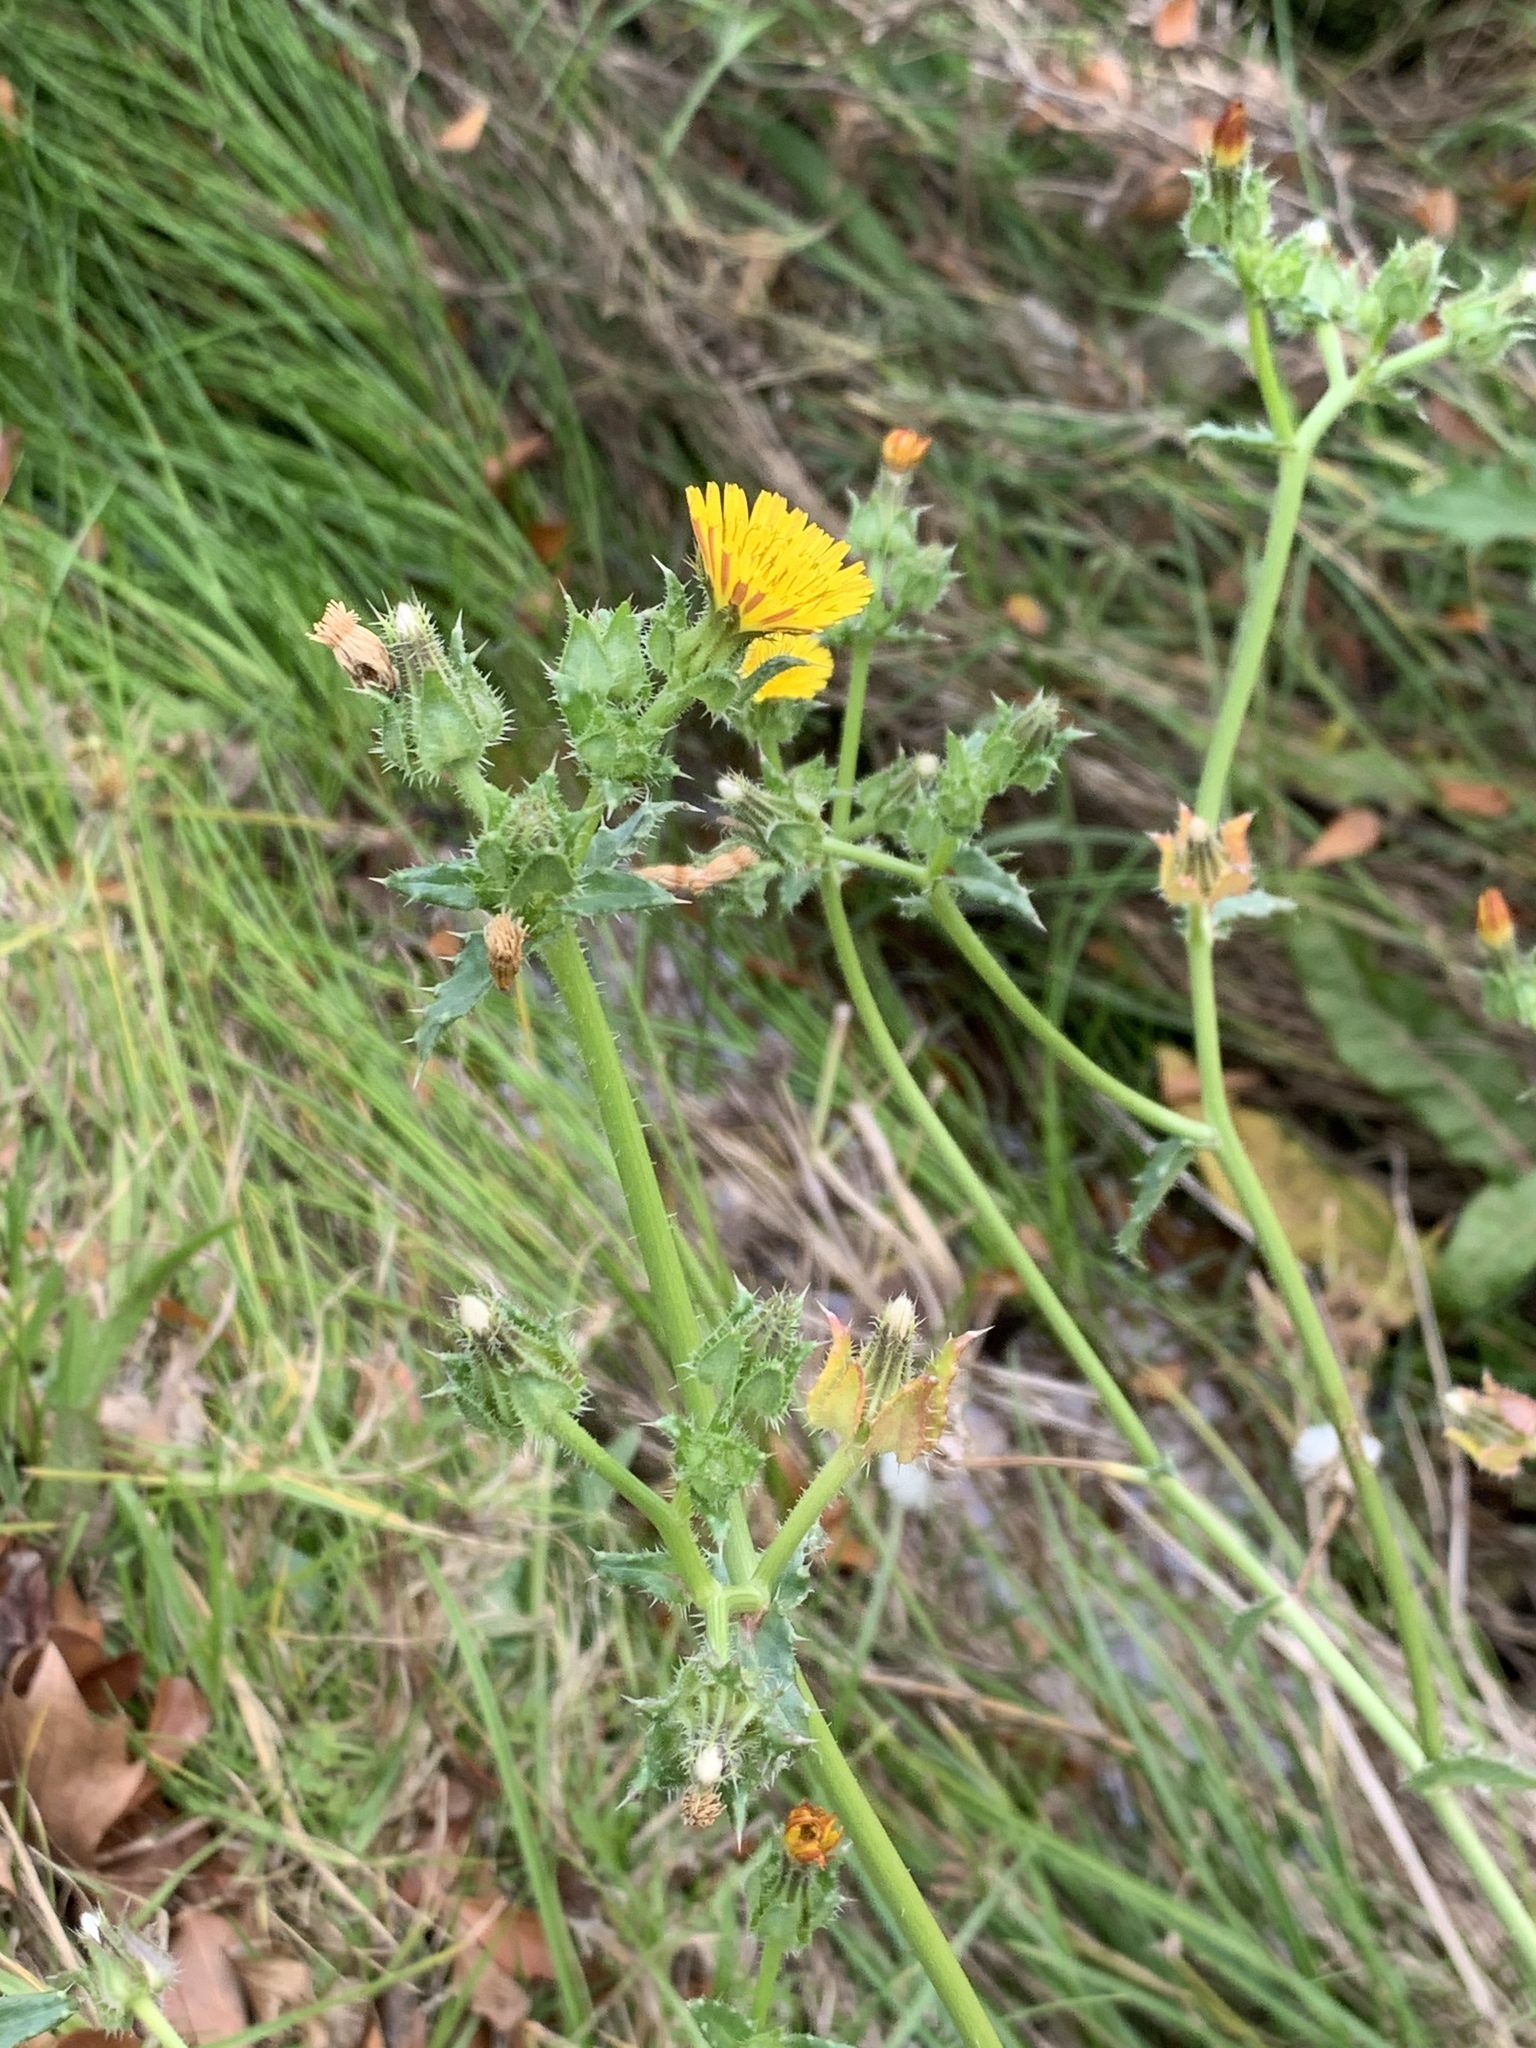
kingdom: Plantae
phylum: Tracheophyta
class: Magnoliopsida
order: Asterales
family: Asteraceae
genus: Helminthotheca
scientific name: Helminthotheca echioides
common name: Ox-tongue
